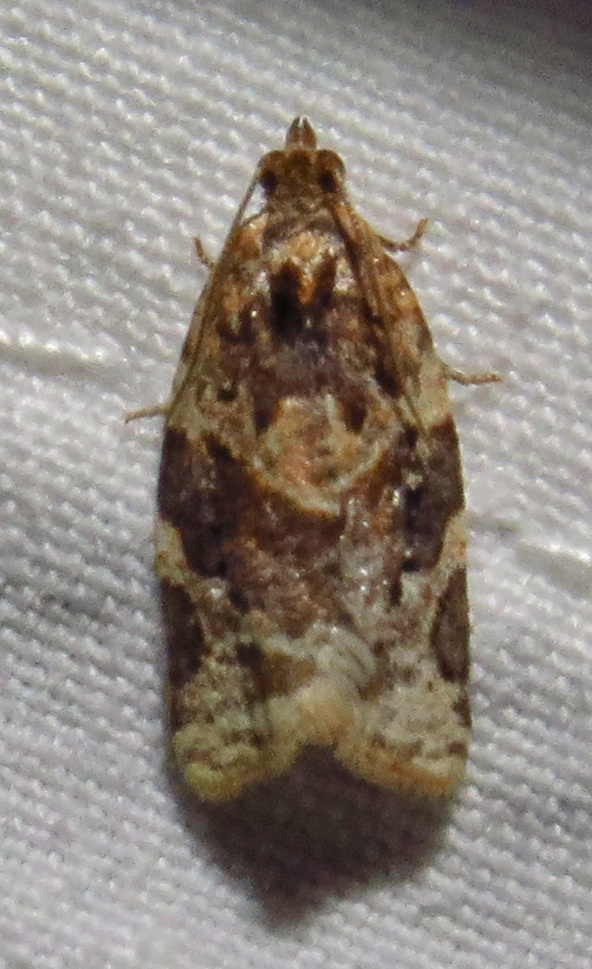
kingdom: Animalia
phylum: Arthropoda
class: Insecta
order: Lepidoptera
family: Tortricidae
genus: Argyrotaenia
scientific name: Argyrotaenia velutinana
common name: Red-banded leafroller moth
